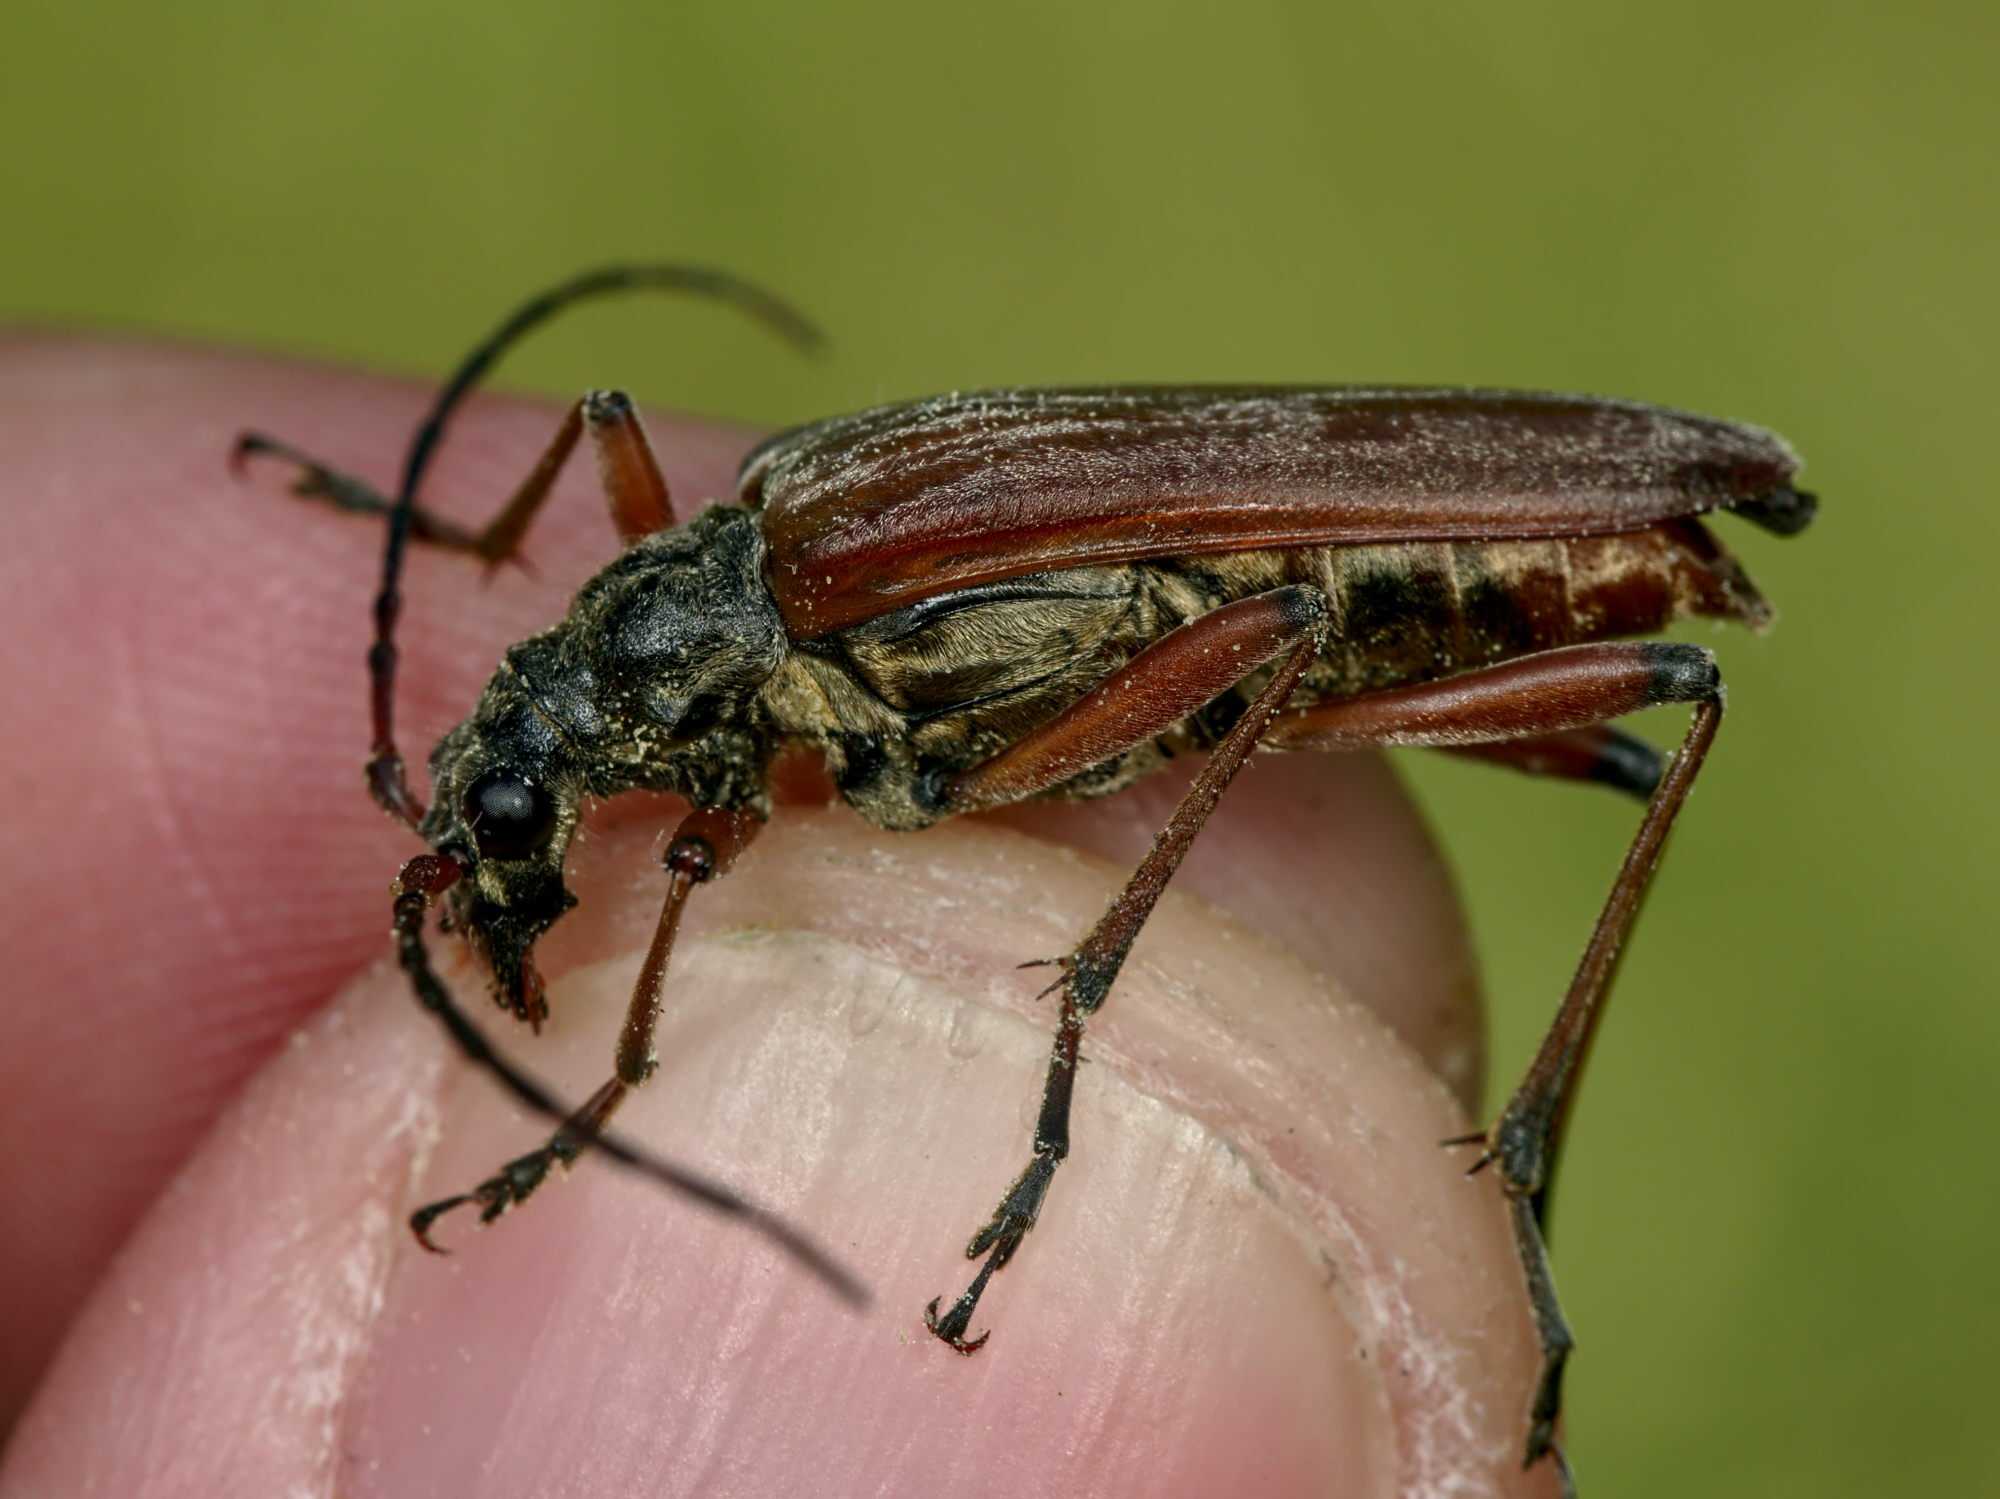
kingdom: Animalia
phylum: Arthropoda
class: Insecta
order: Coleoptera
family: Cerambycidae
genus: Stenopterus
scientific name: Stenopterus rufus
